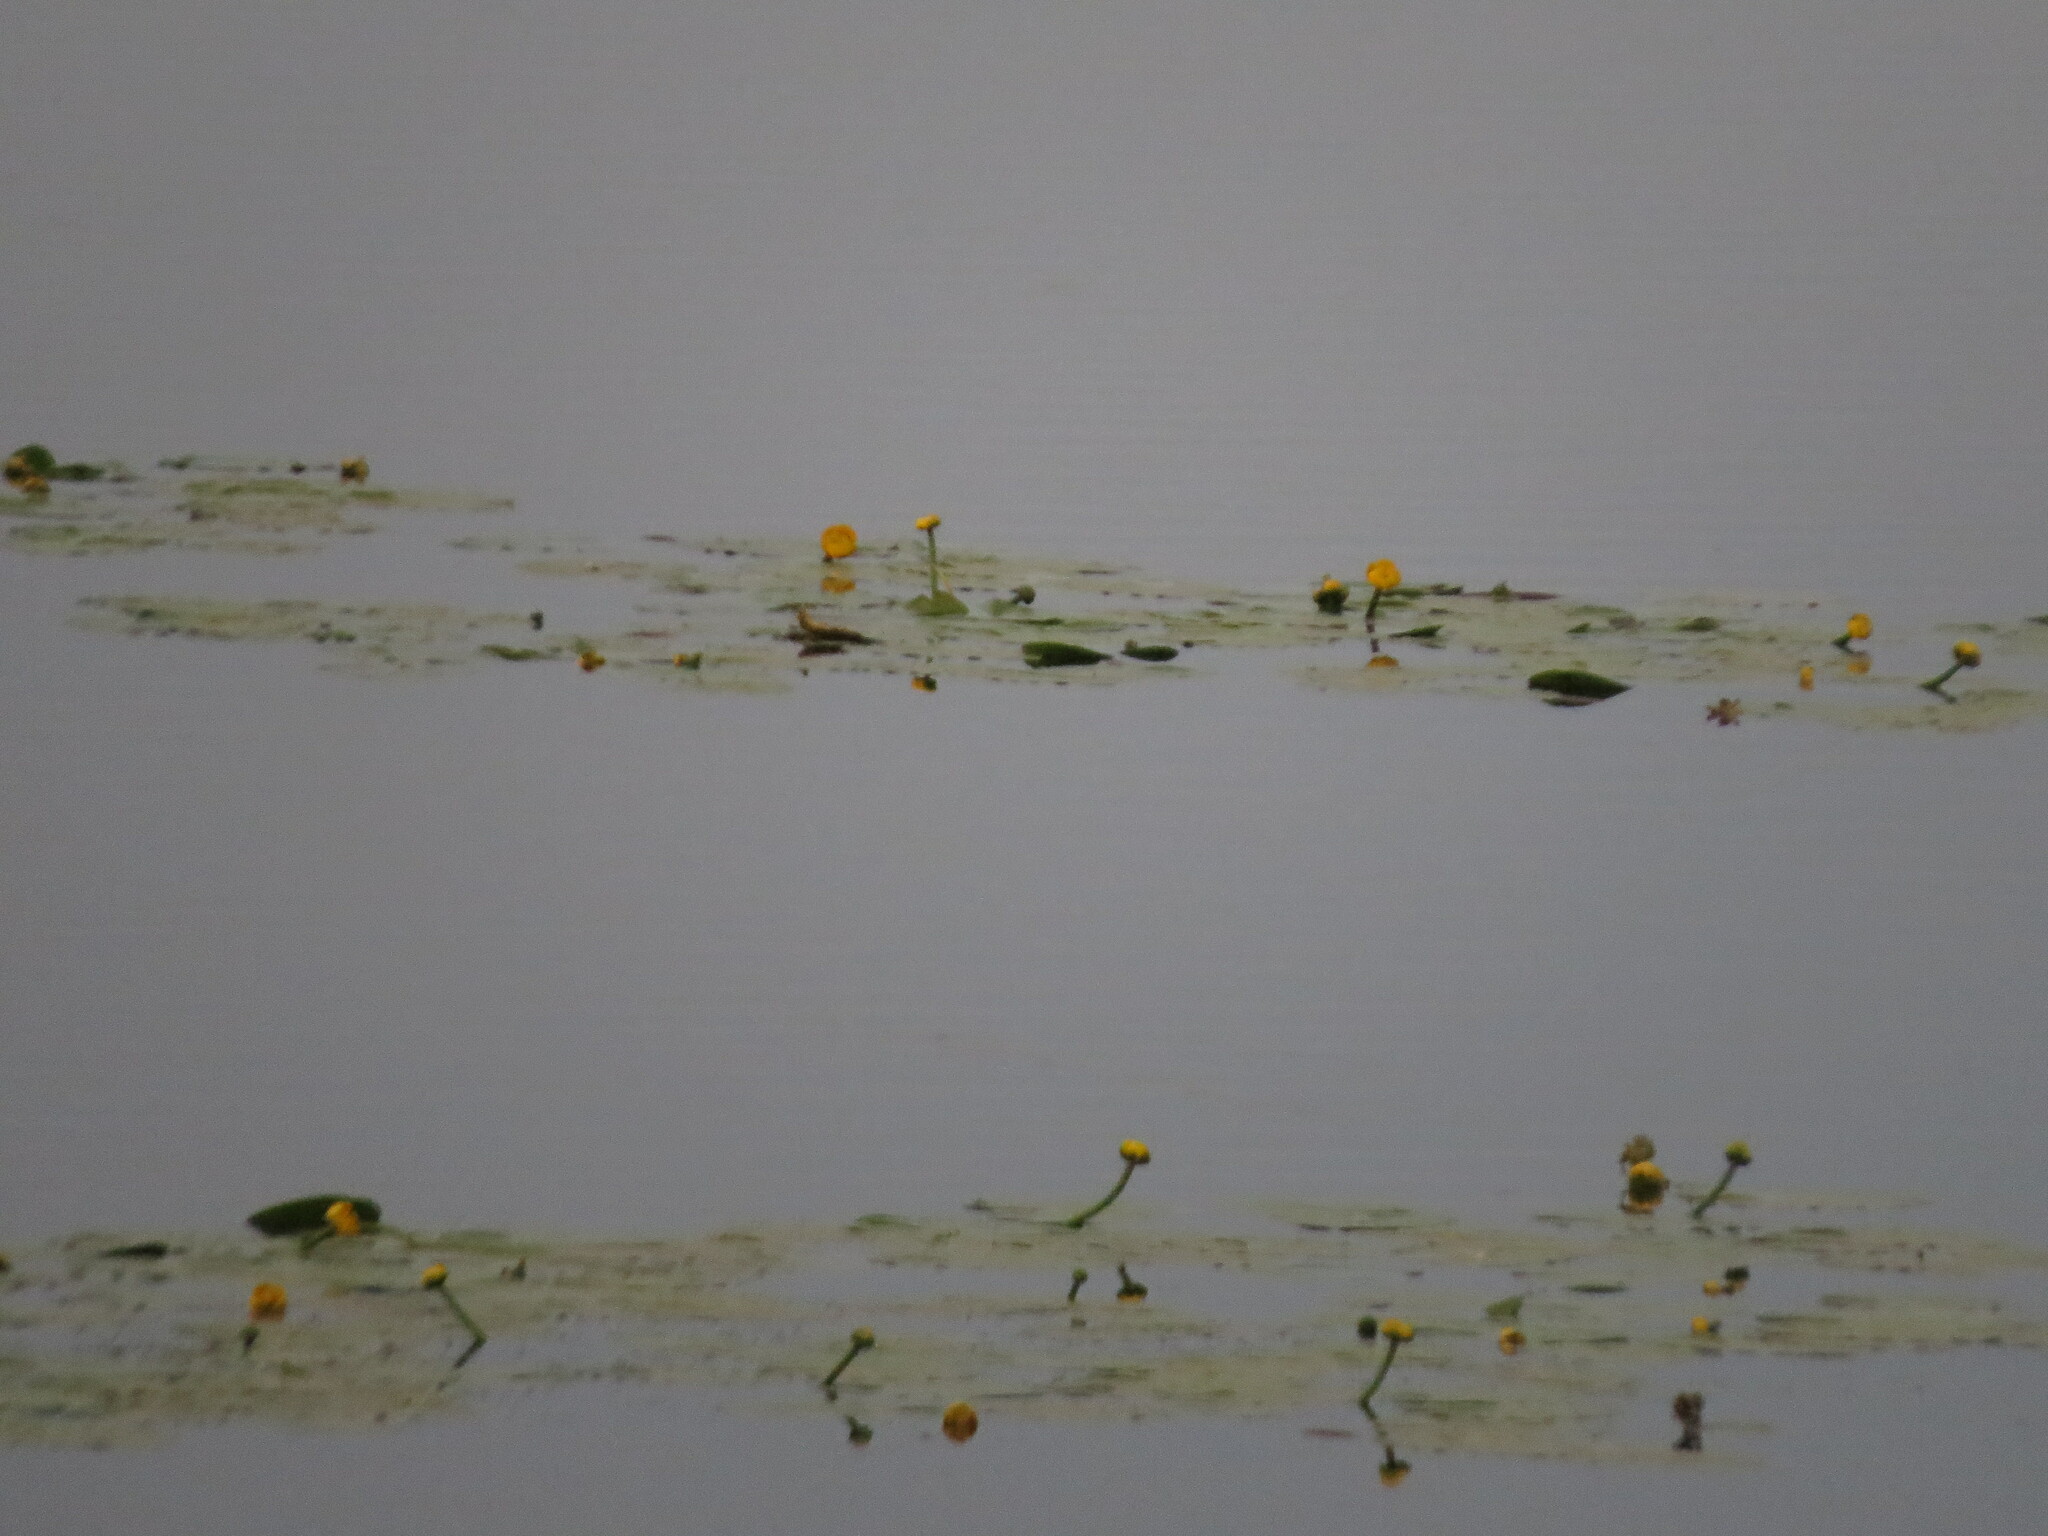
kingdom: Plantae
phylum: Tracheophyta
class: Magnoliopsida
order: Nymphaeales
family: Nymphaeaceae
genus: Nuphar
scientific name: Nuphar lutea
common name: Yellow water-lily
